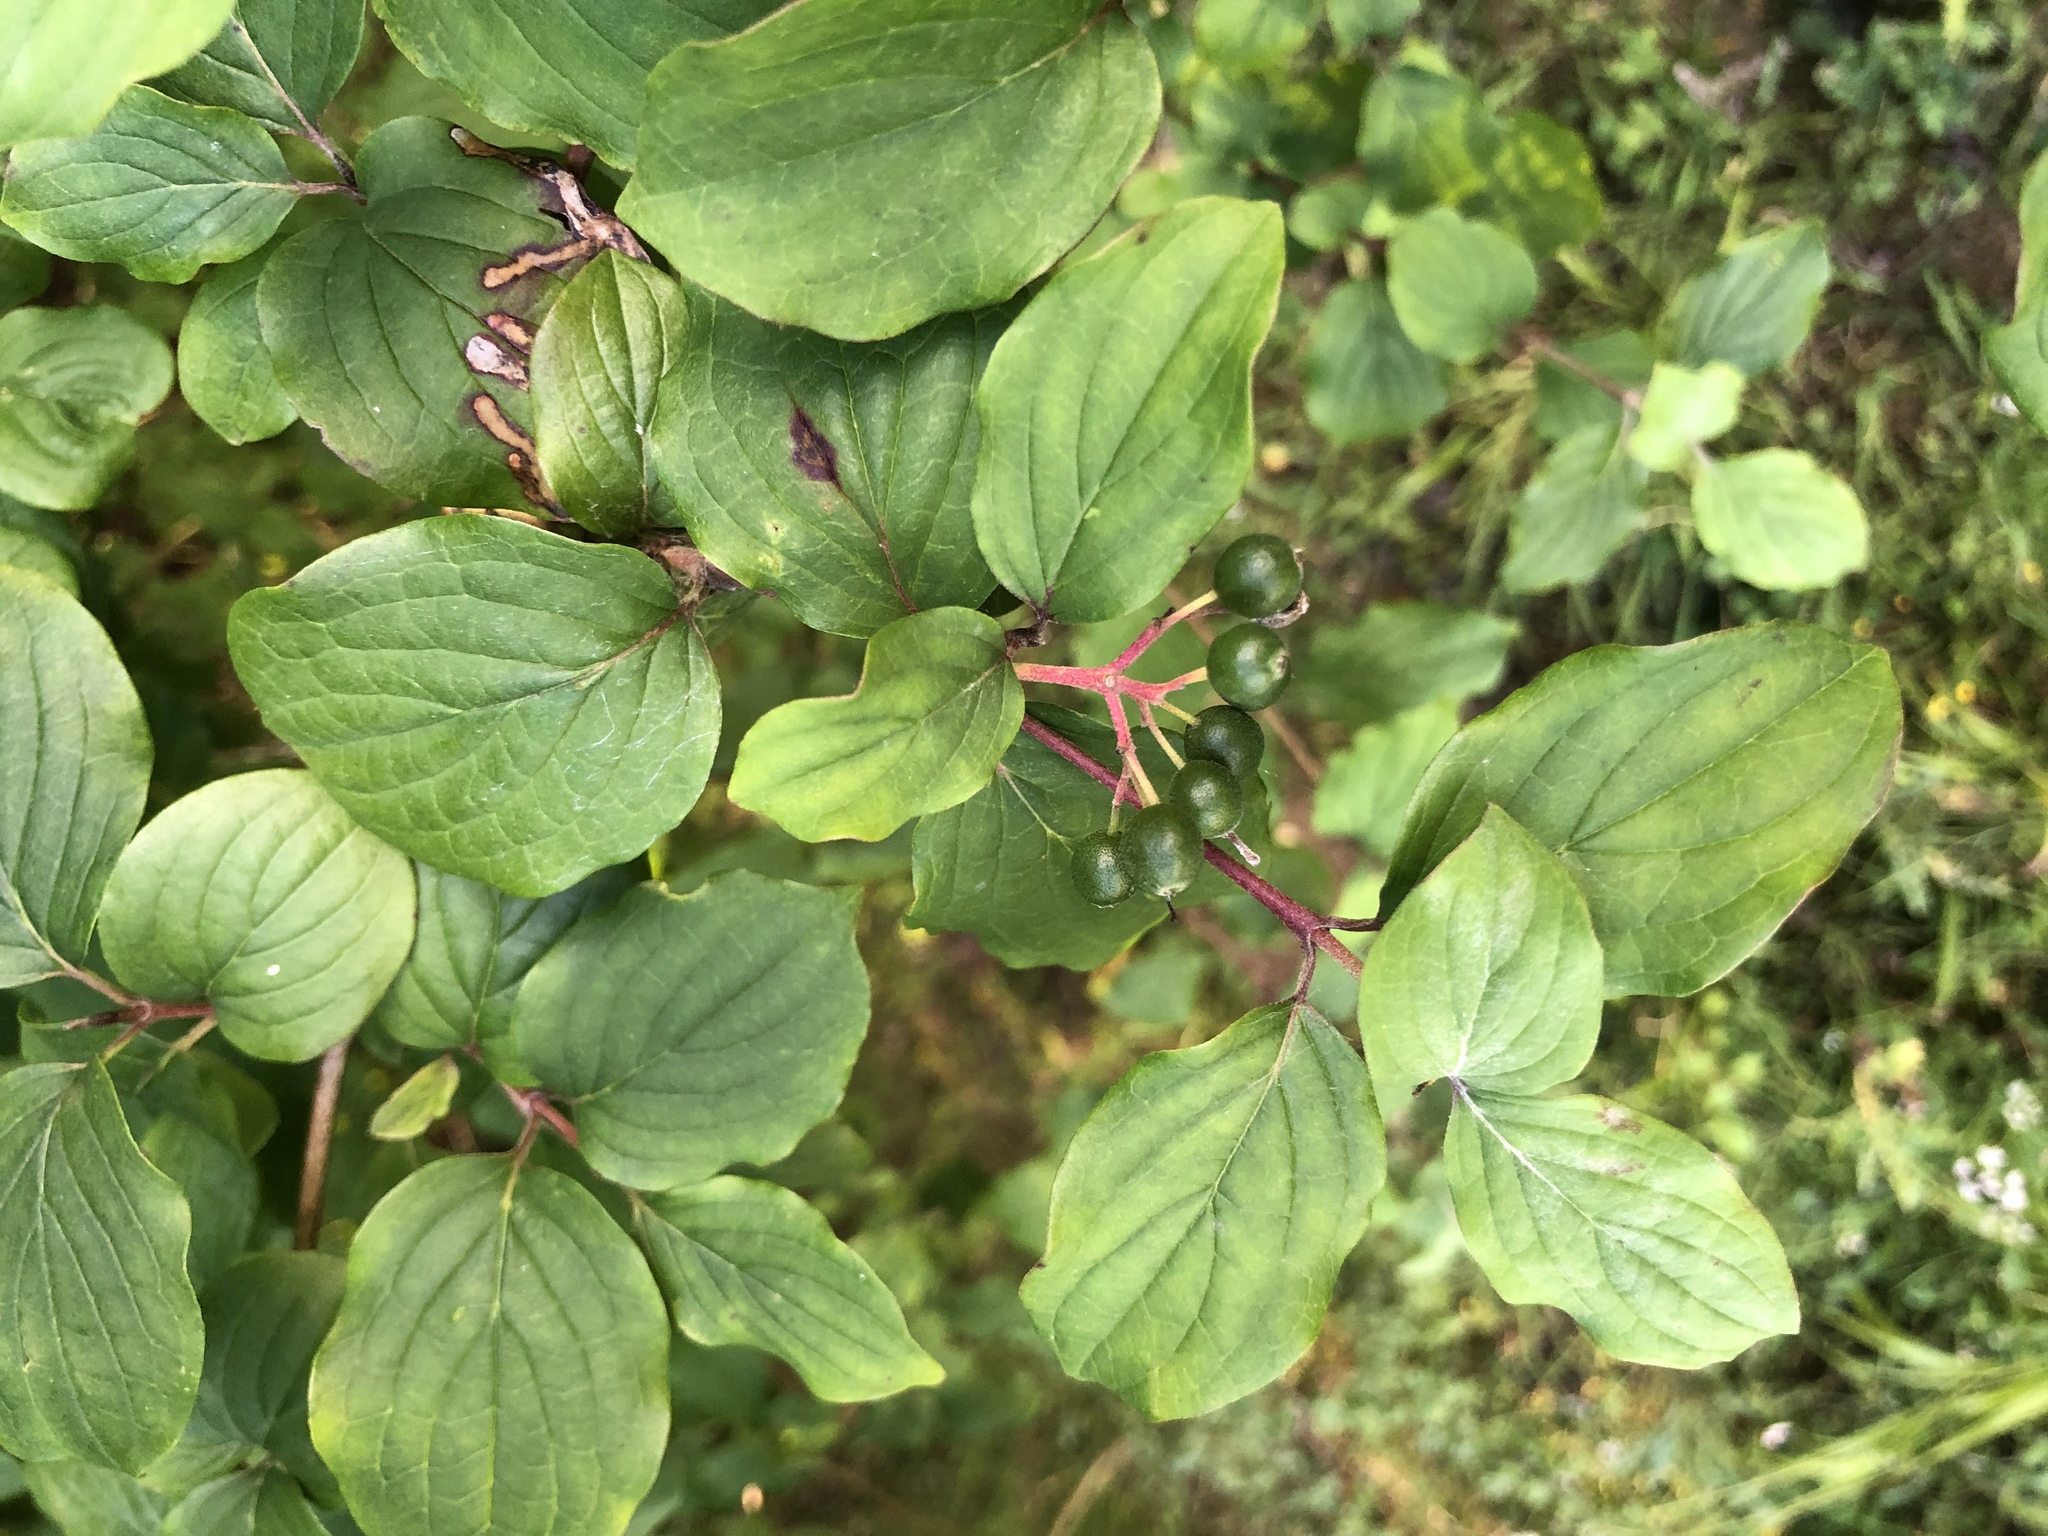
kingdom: Plantae
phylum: Tracheophyta
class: Magnoliopsida
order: Cornales
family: Cornaceae
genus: Cornus
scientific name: Cornus sanguinea
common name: Dogwood
